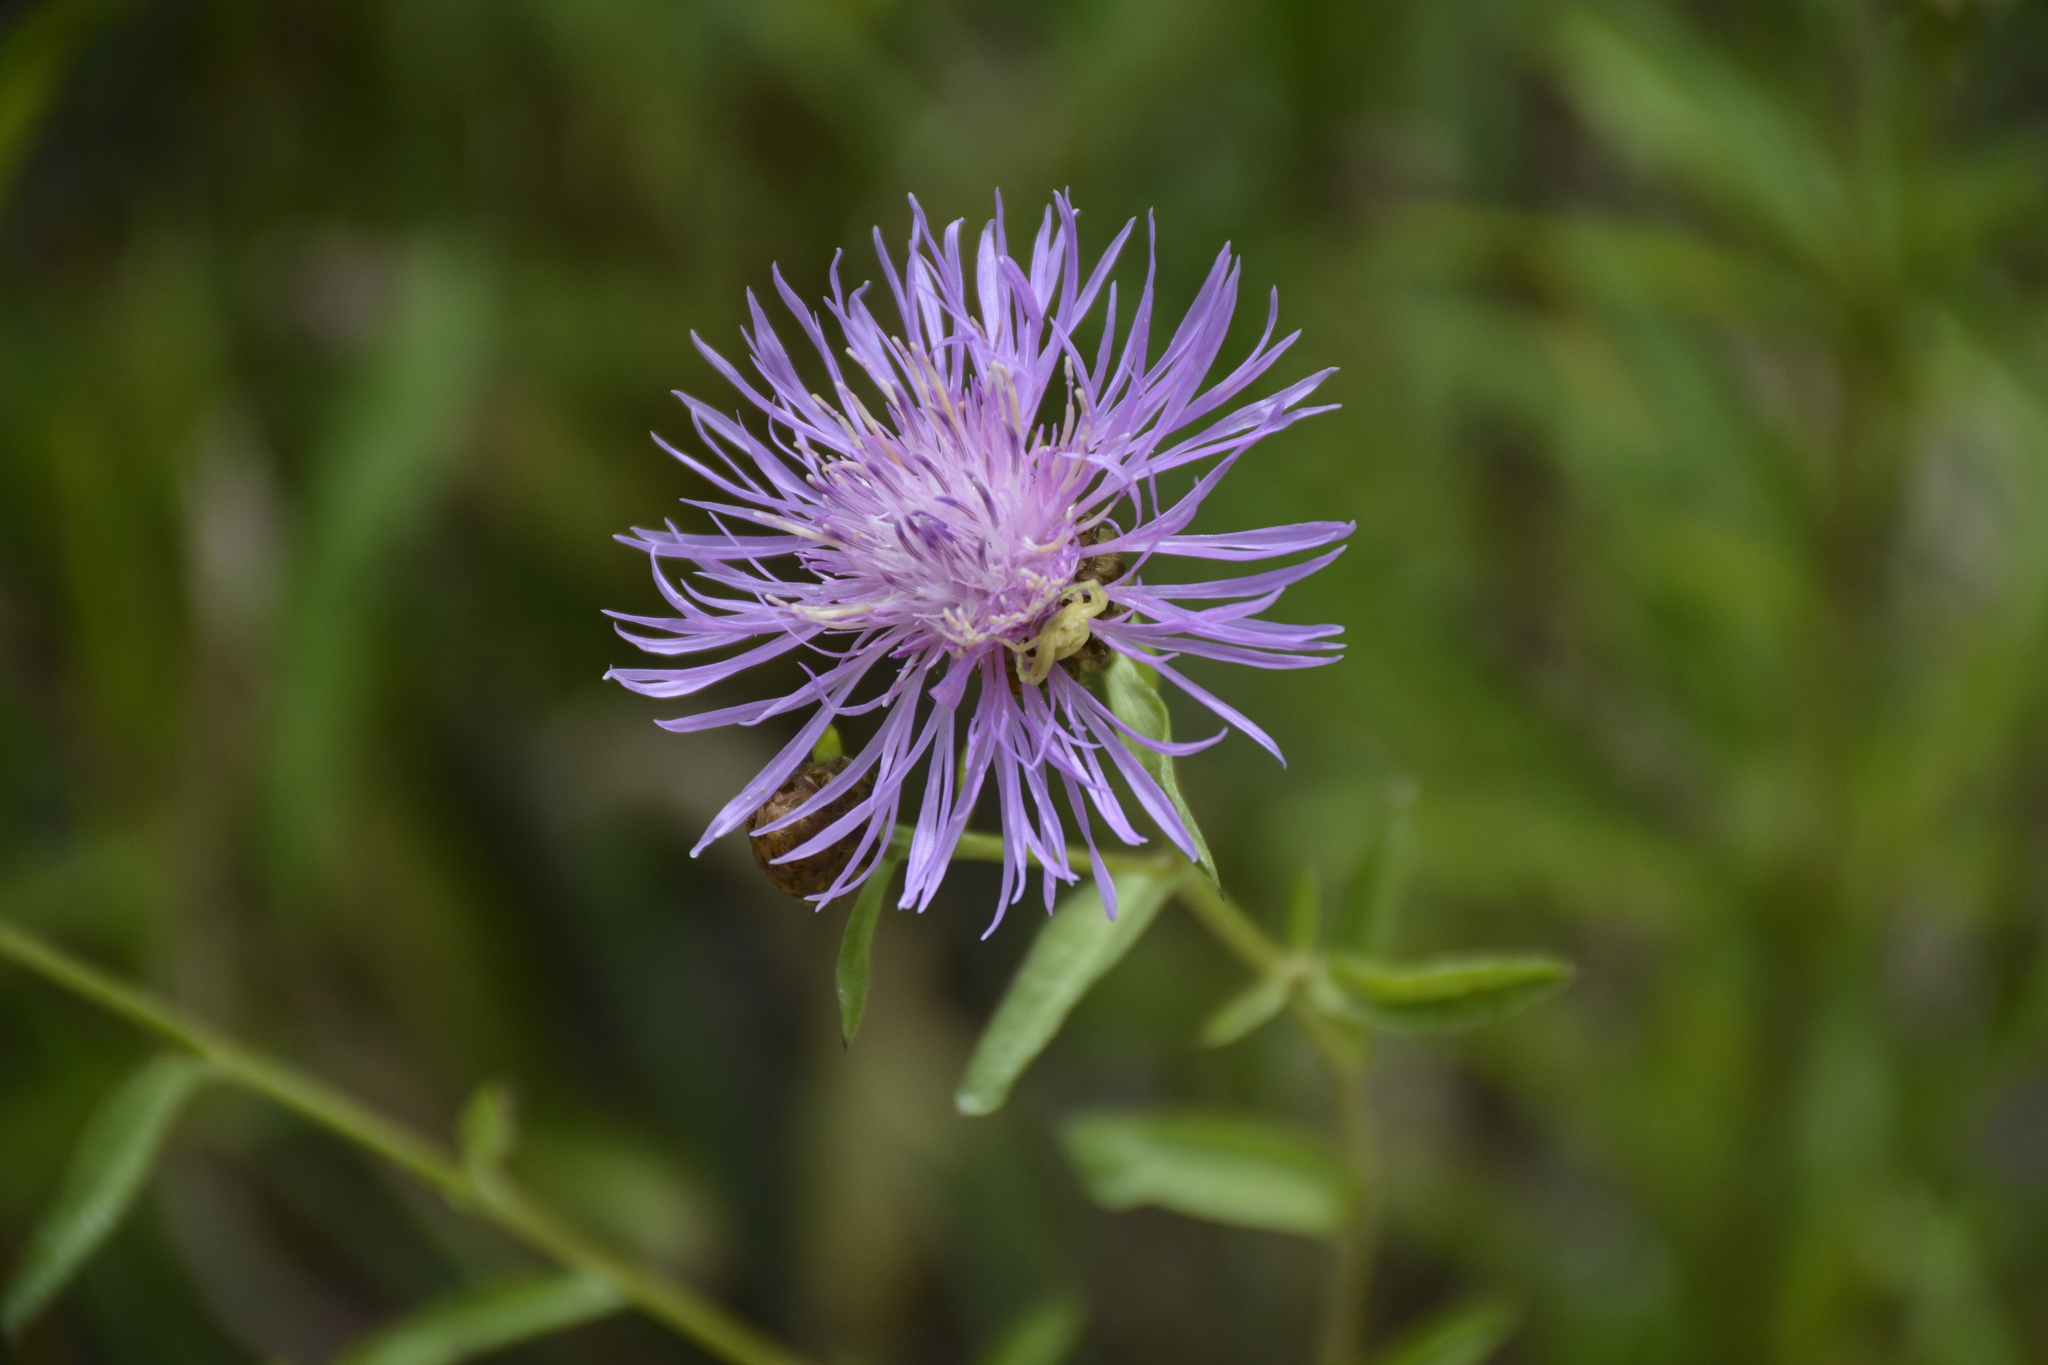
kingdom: Plantae
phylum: Tracheophyta
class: Magnoliopsida
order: Asterales
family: Asteraceae
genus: Centaurea
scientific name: Centaurea jacea
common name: Brown knapweed
